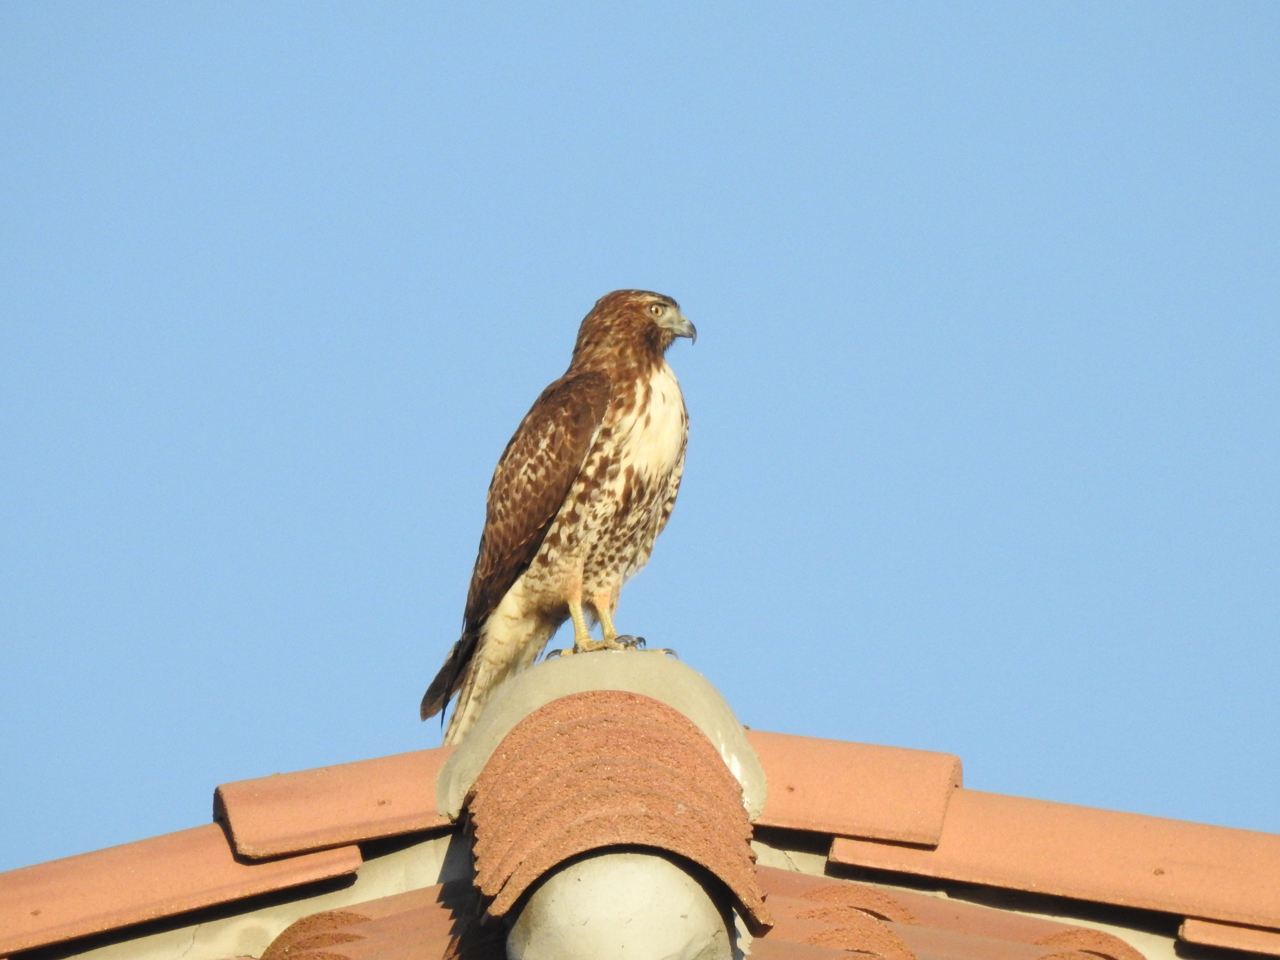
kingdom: Animalia
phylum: Chordata
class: Aves
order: Accipitriformes
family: Accipitridae
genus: Buteo
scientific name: Buteo jamaicensis
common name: Red-tailed hawk
